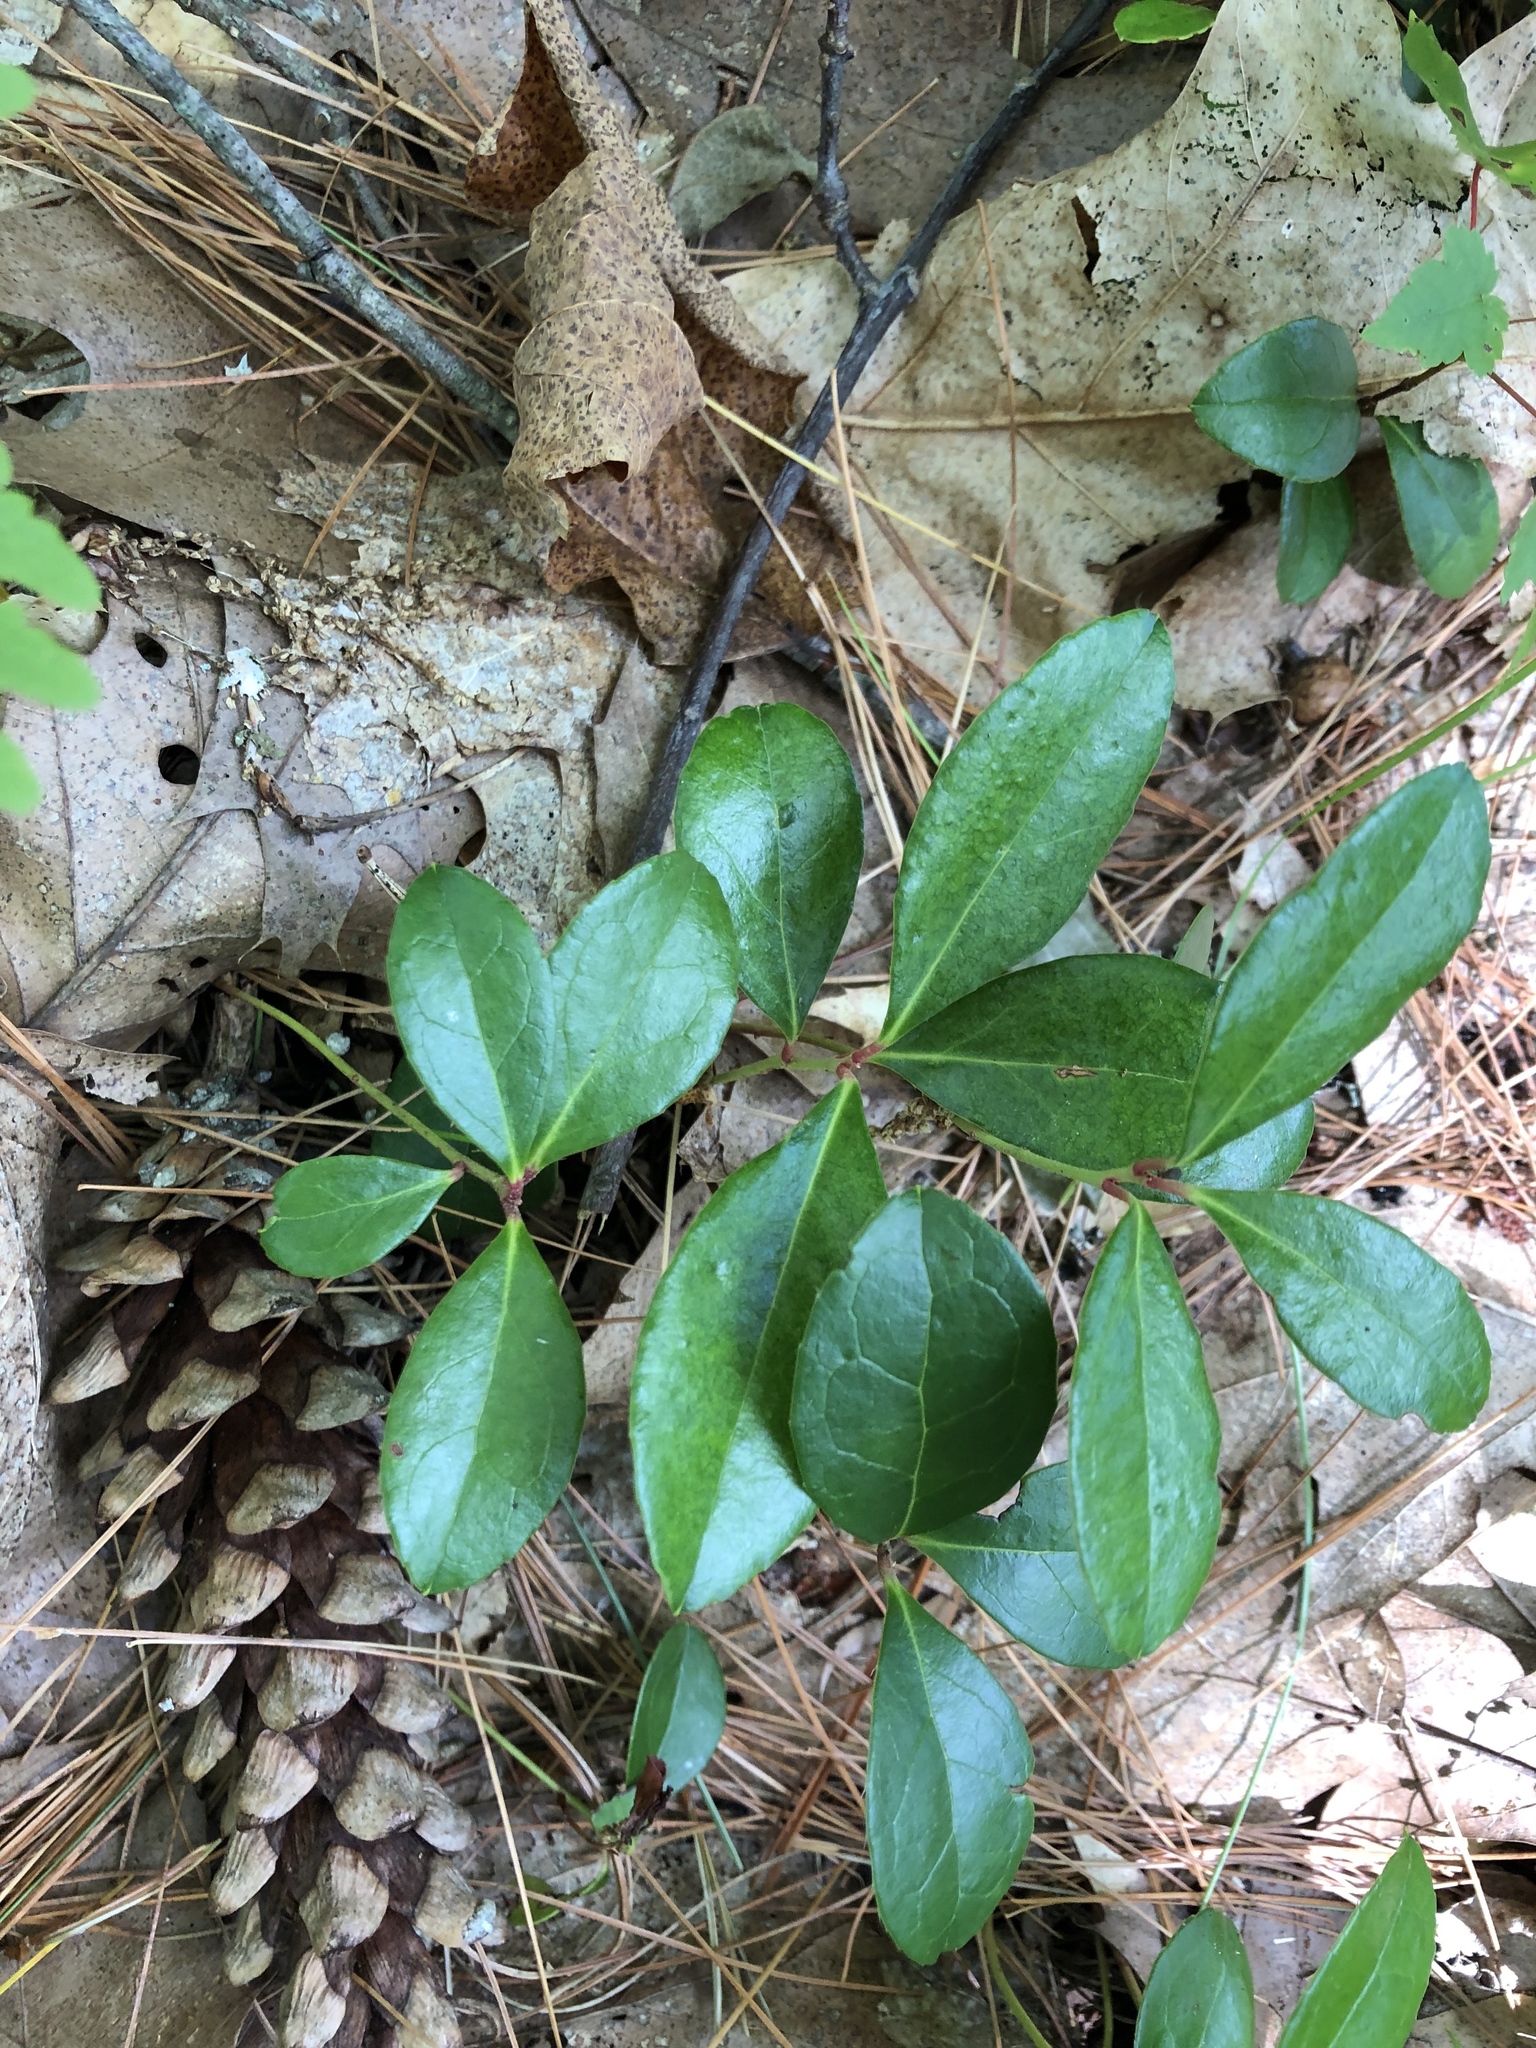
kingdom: Plantae
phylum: Tracheophyta
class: Magnoliopsida
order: Ericales
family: Ericaceae
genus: Gaultheria
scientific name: Gaultheria procumbens
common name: Checkerberry
